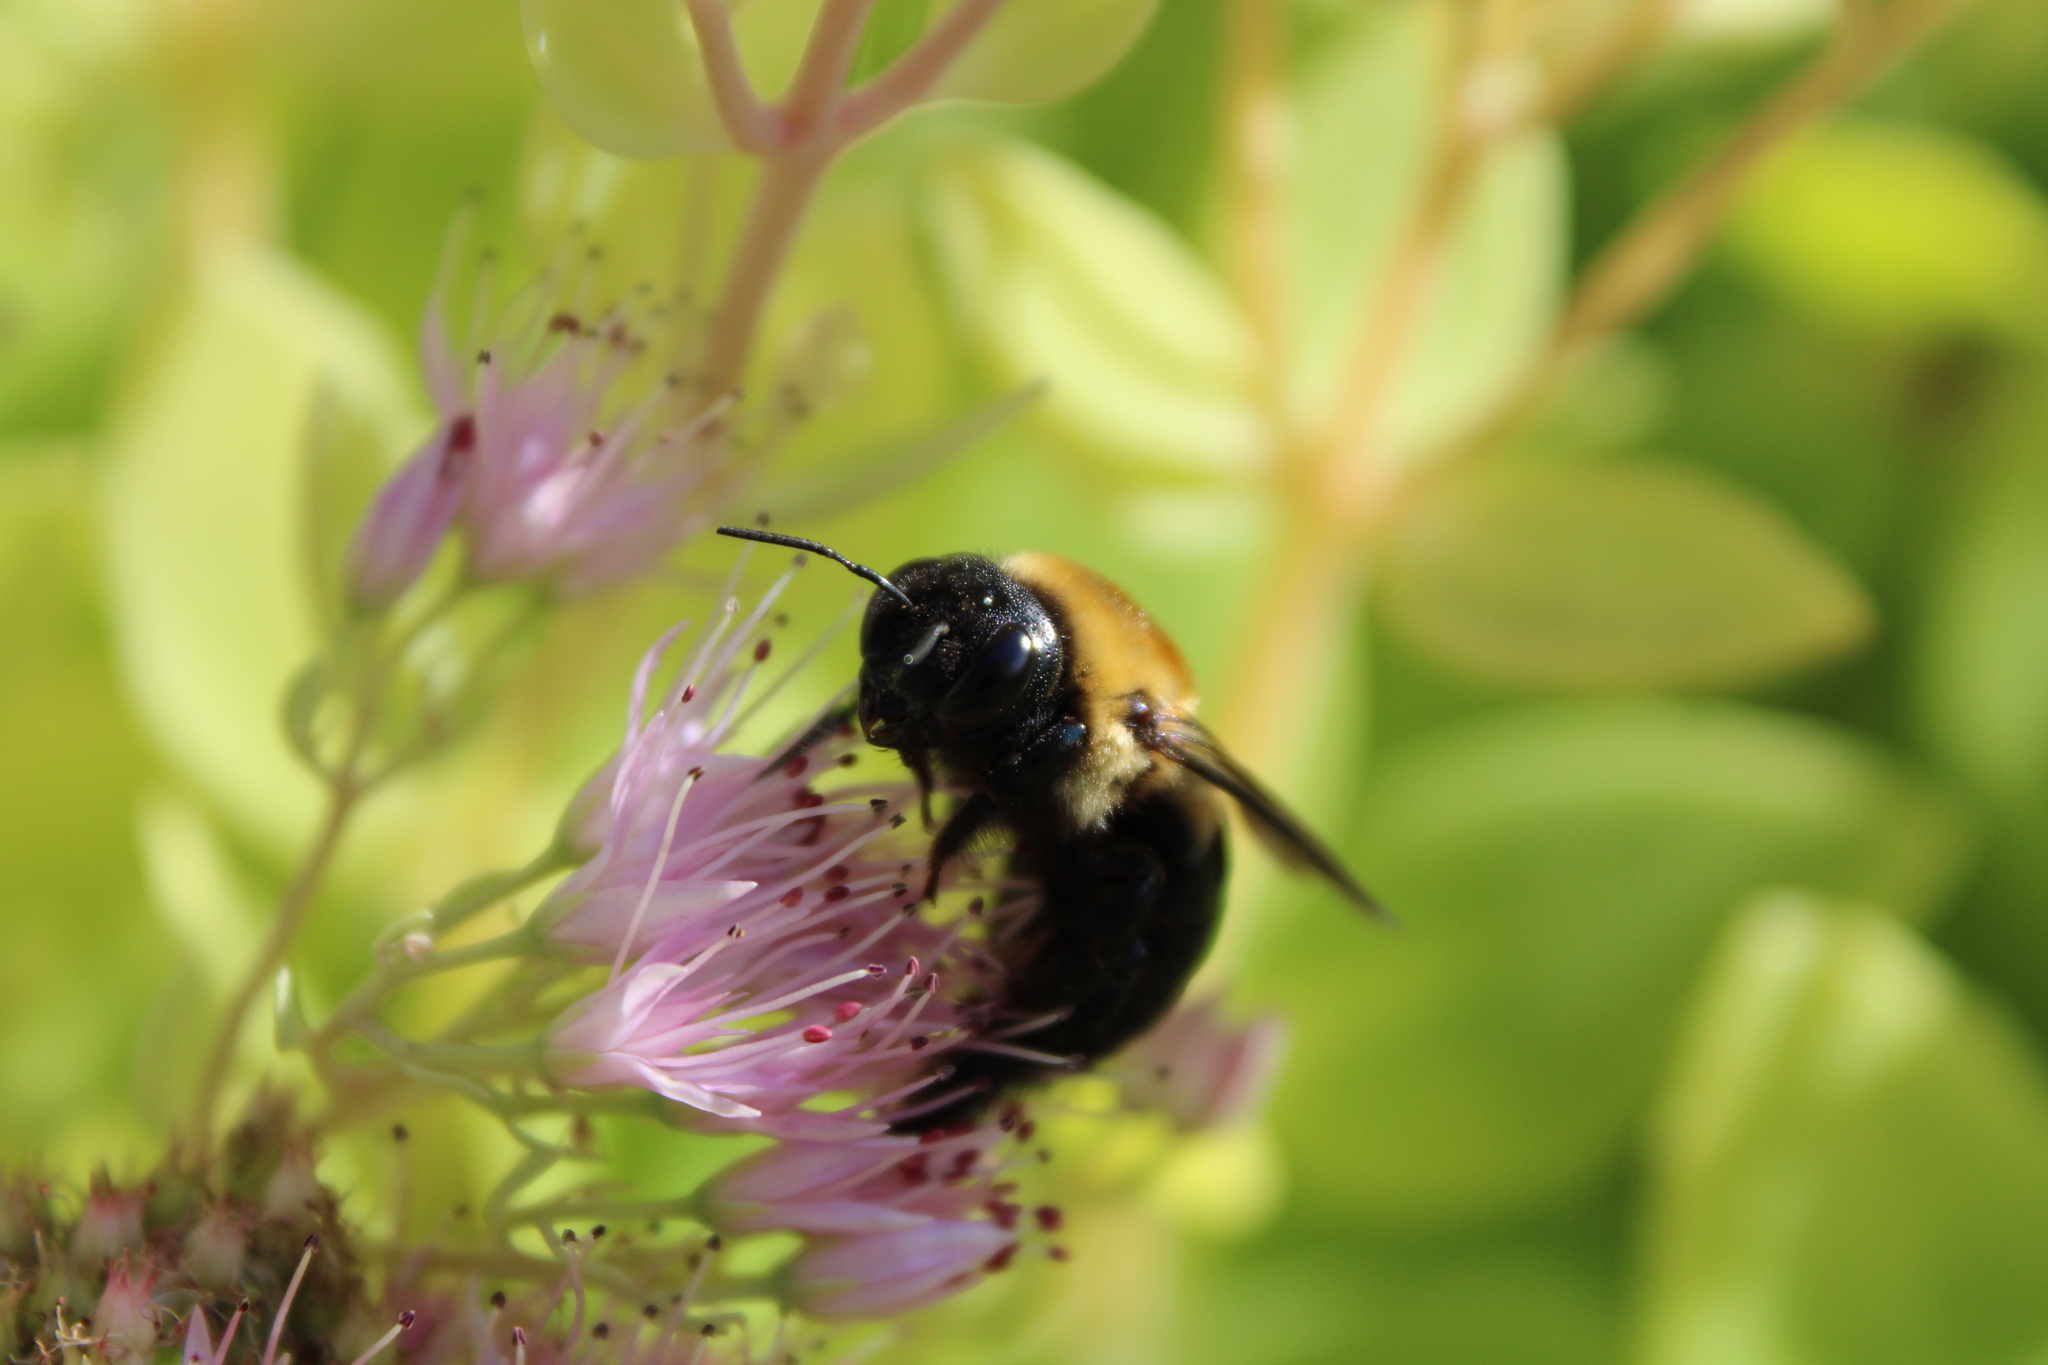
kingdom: Animalia
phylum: Arthropoda
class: Insecta
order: Hymenoptera
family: Apidae
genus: Xylocopa
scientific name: Xylocopa virginica
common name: Carpenter bee
